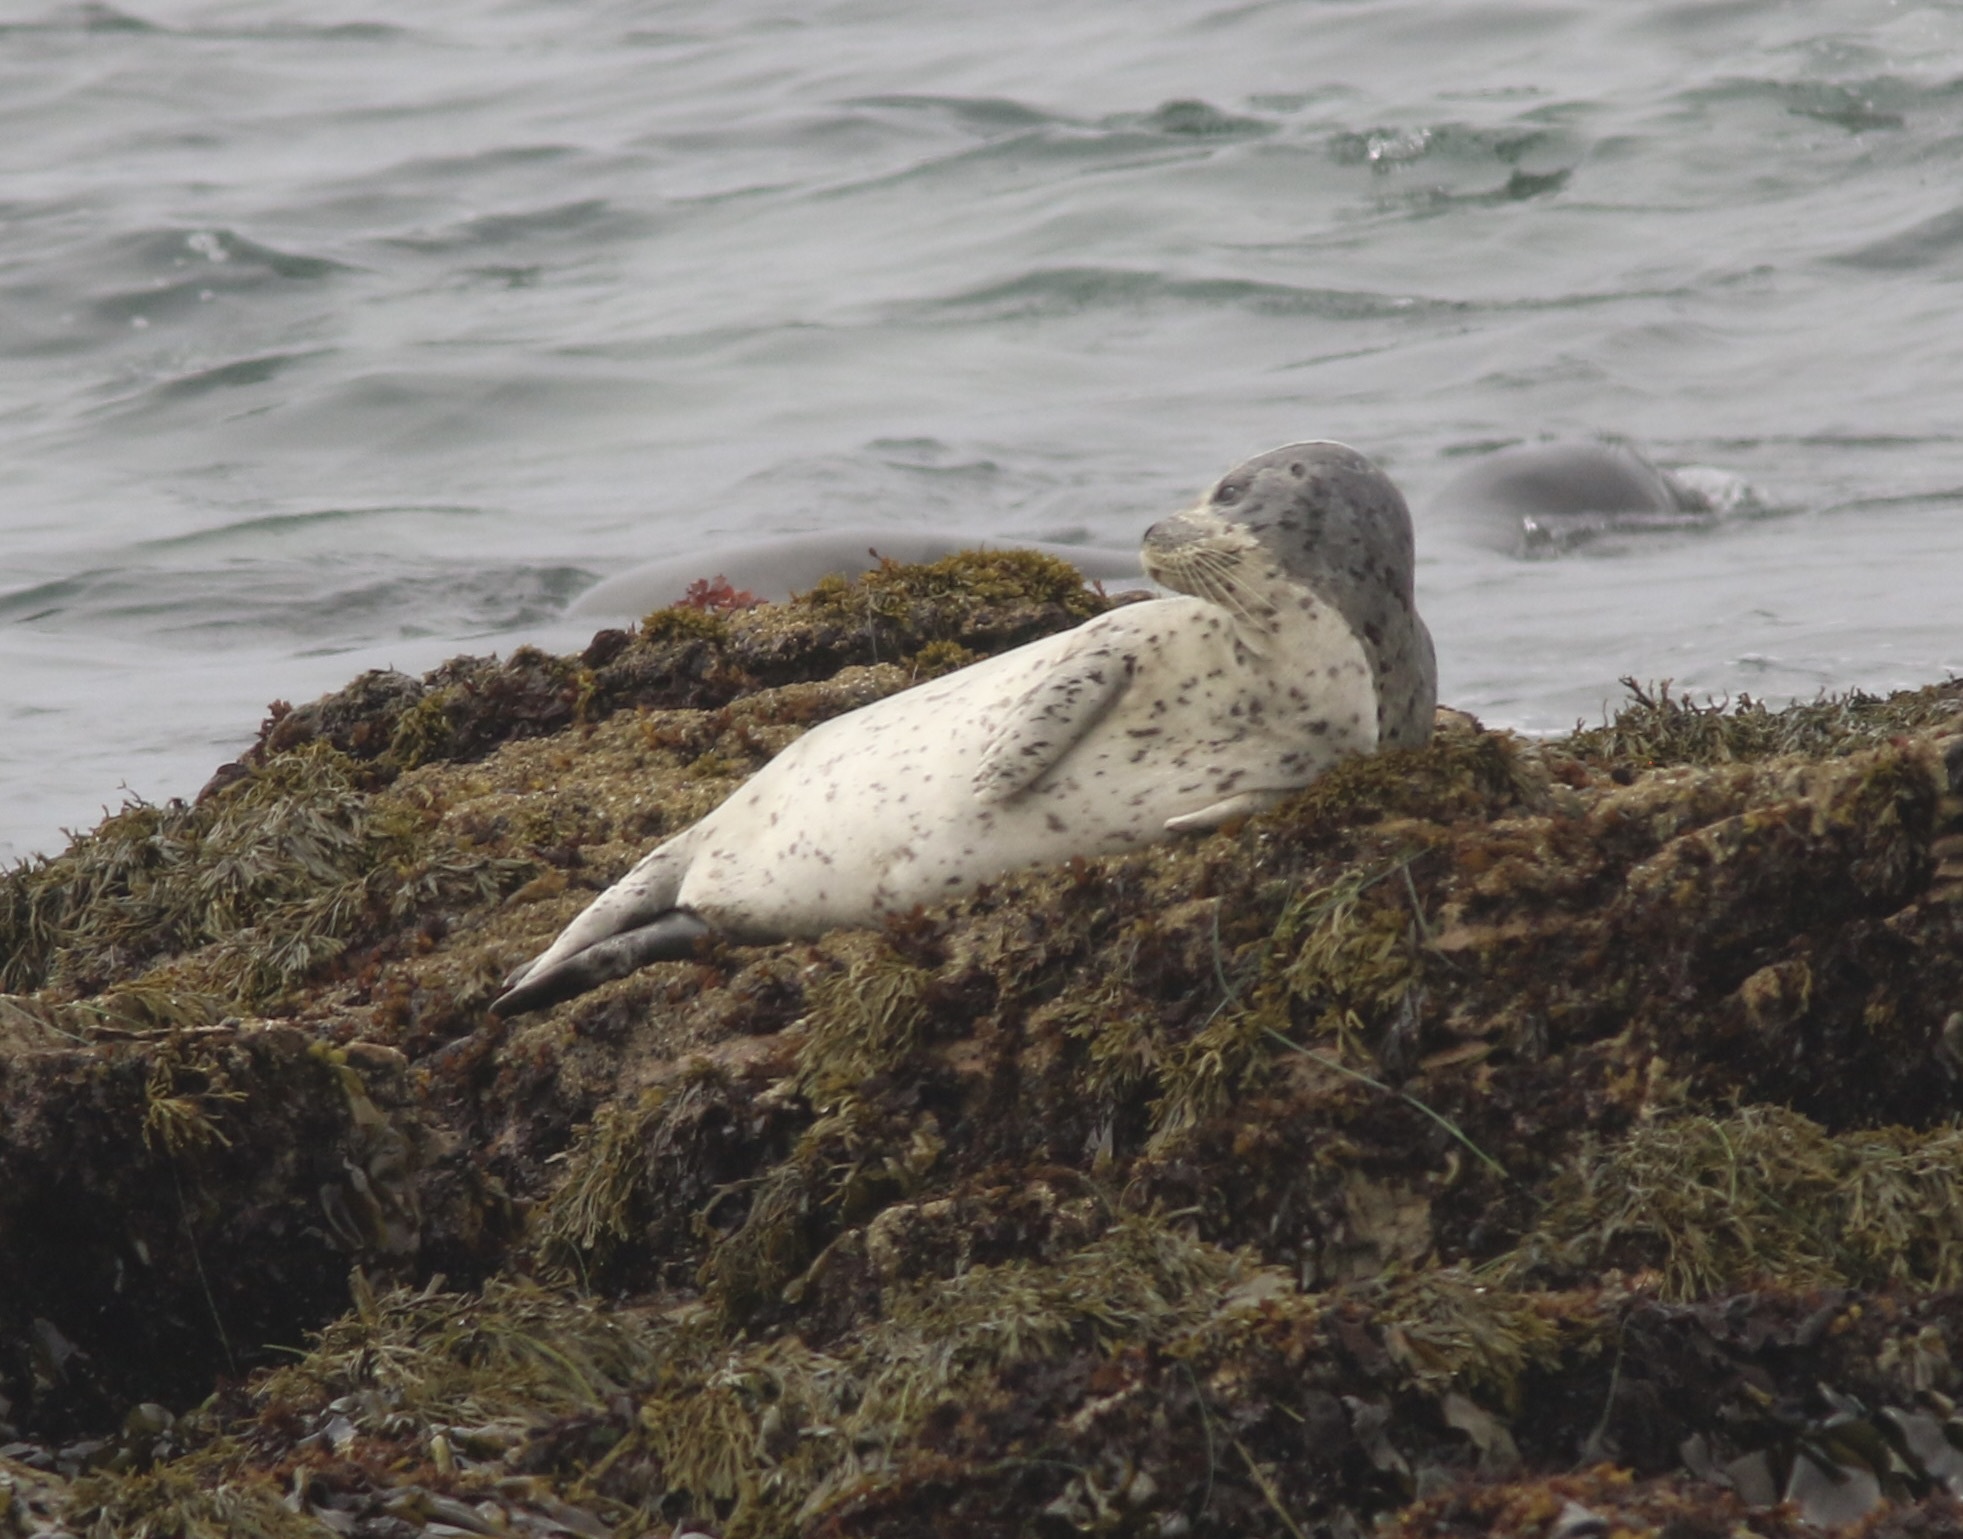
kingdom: Animalia
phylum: Chordata
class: Mammalia
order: Carnivora
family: Phocidae
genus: Phoca
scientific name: Phoca vitulina
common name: Harbor seal
